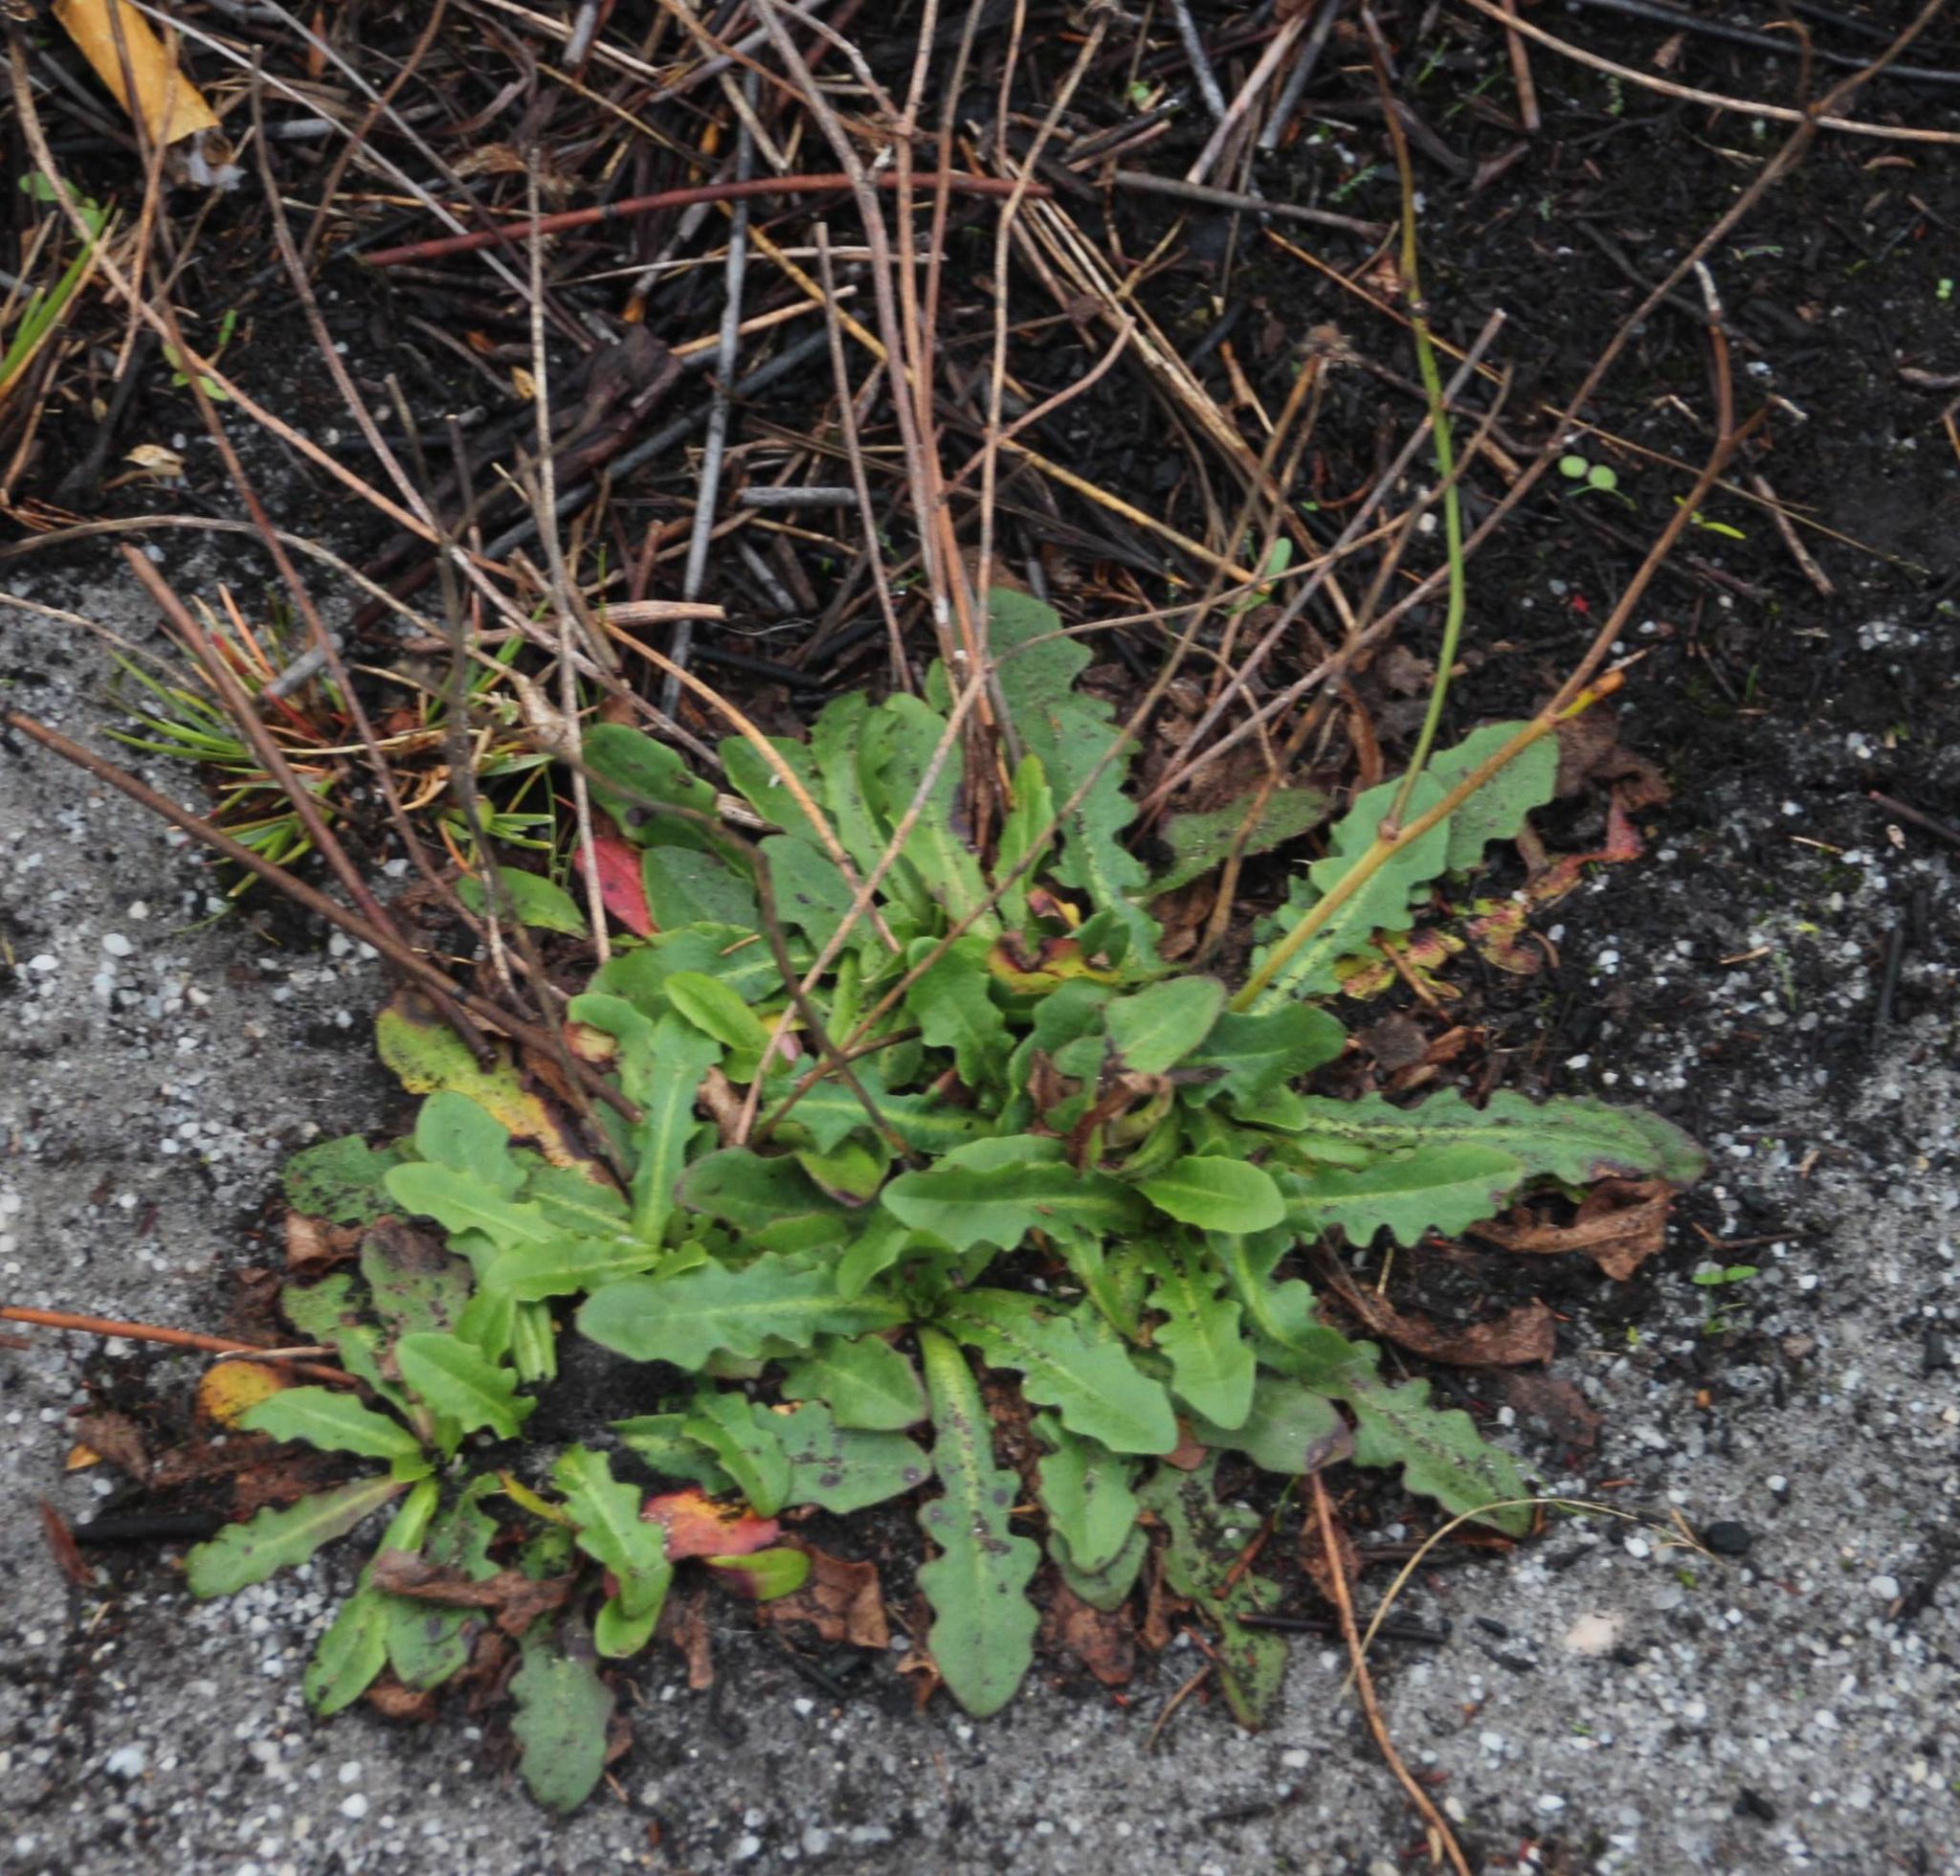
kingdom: Plantae
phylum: Tracheophyta
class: Magnoliopsida
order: Asterales
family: Asteraceae
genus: Hypochaeris
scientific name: Hypochaeris radicata
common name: Flatweed
